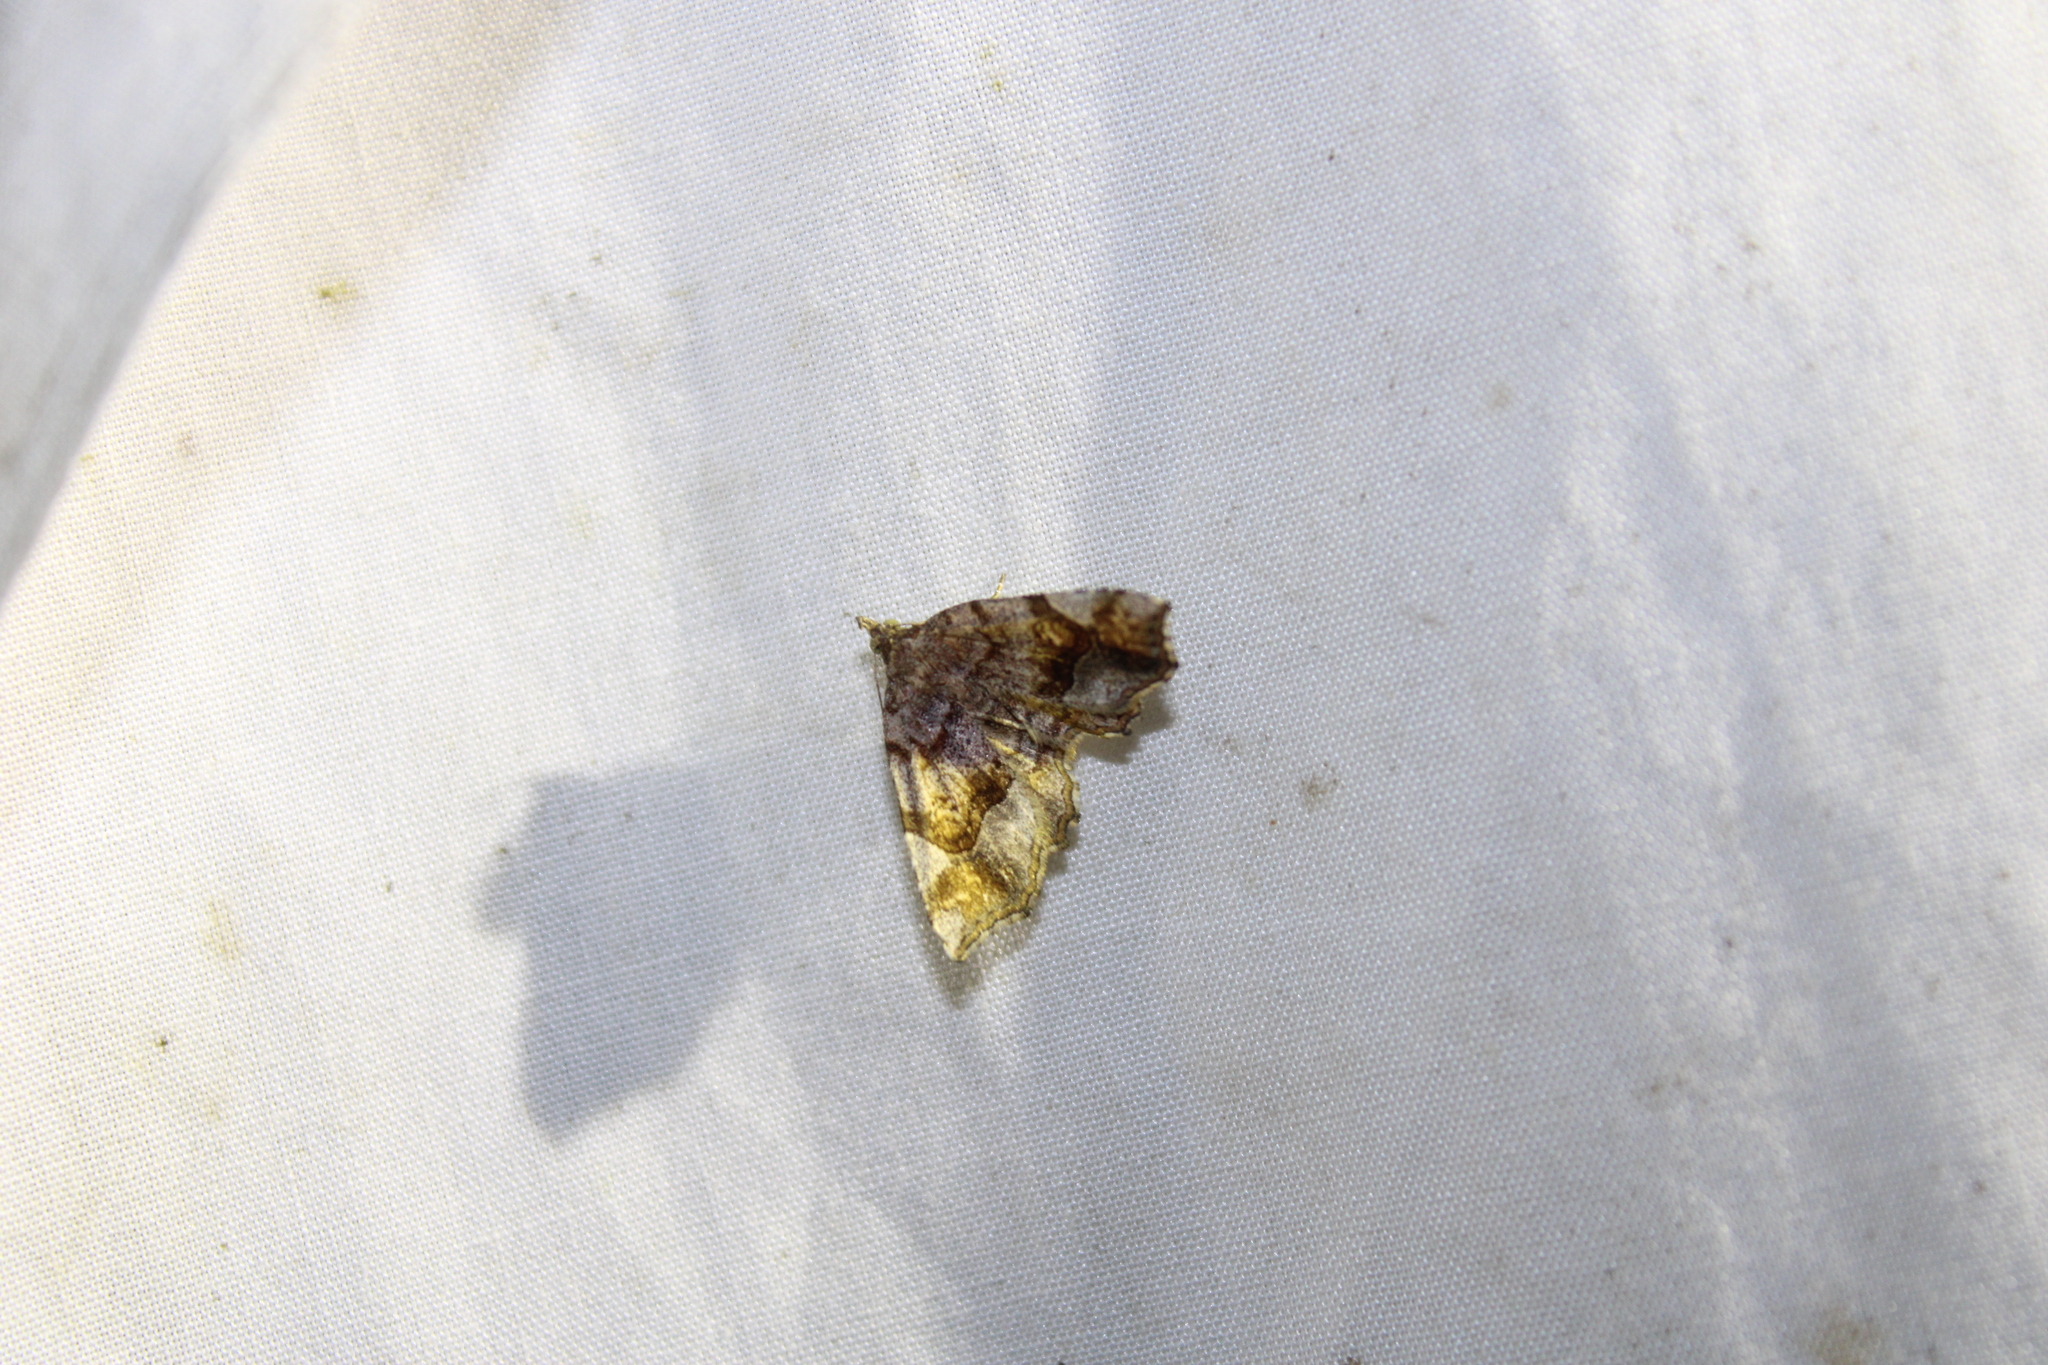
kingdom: Animalia
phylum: Arthropoda
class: Insecta
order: Lepidoptera
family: Erebidae
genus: Pangrapta
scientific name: Pangrapta decoralis
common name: Decorated owlet
